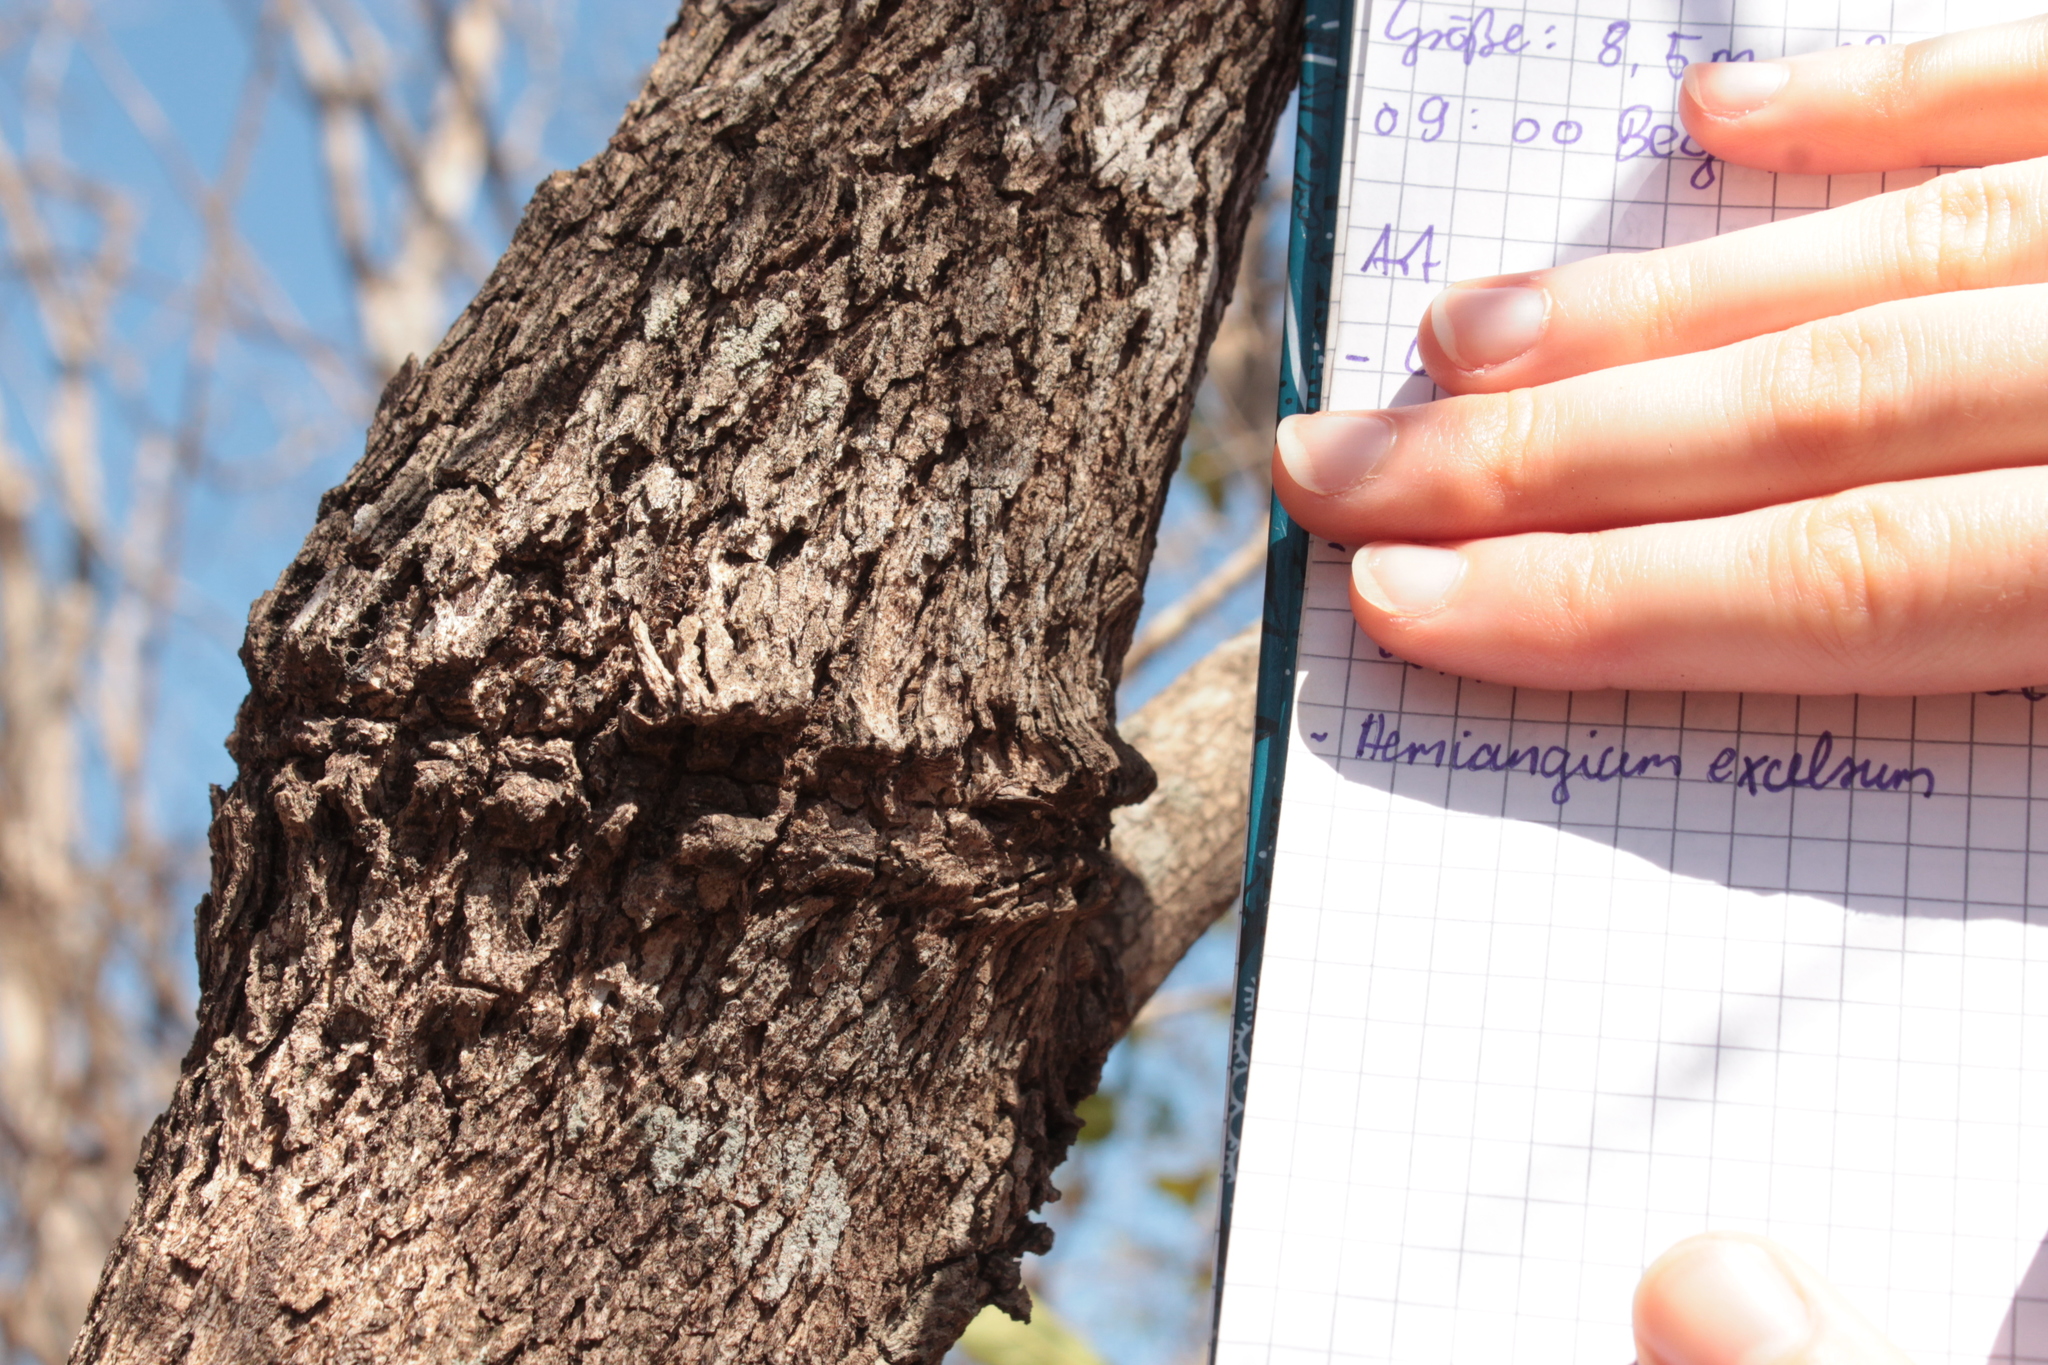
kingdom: Plantae
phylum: Tracheophyta
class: Magnoliopsida
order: Celastrales
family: Celastraceae
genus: Semialarium
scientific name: Semialarium mexicanum
